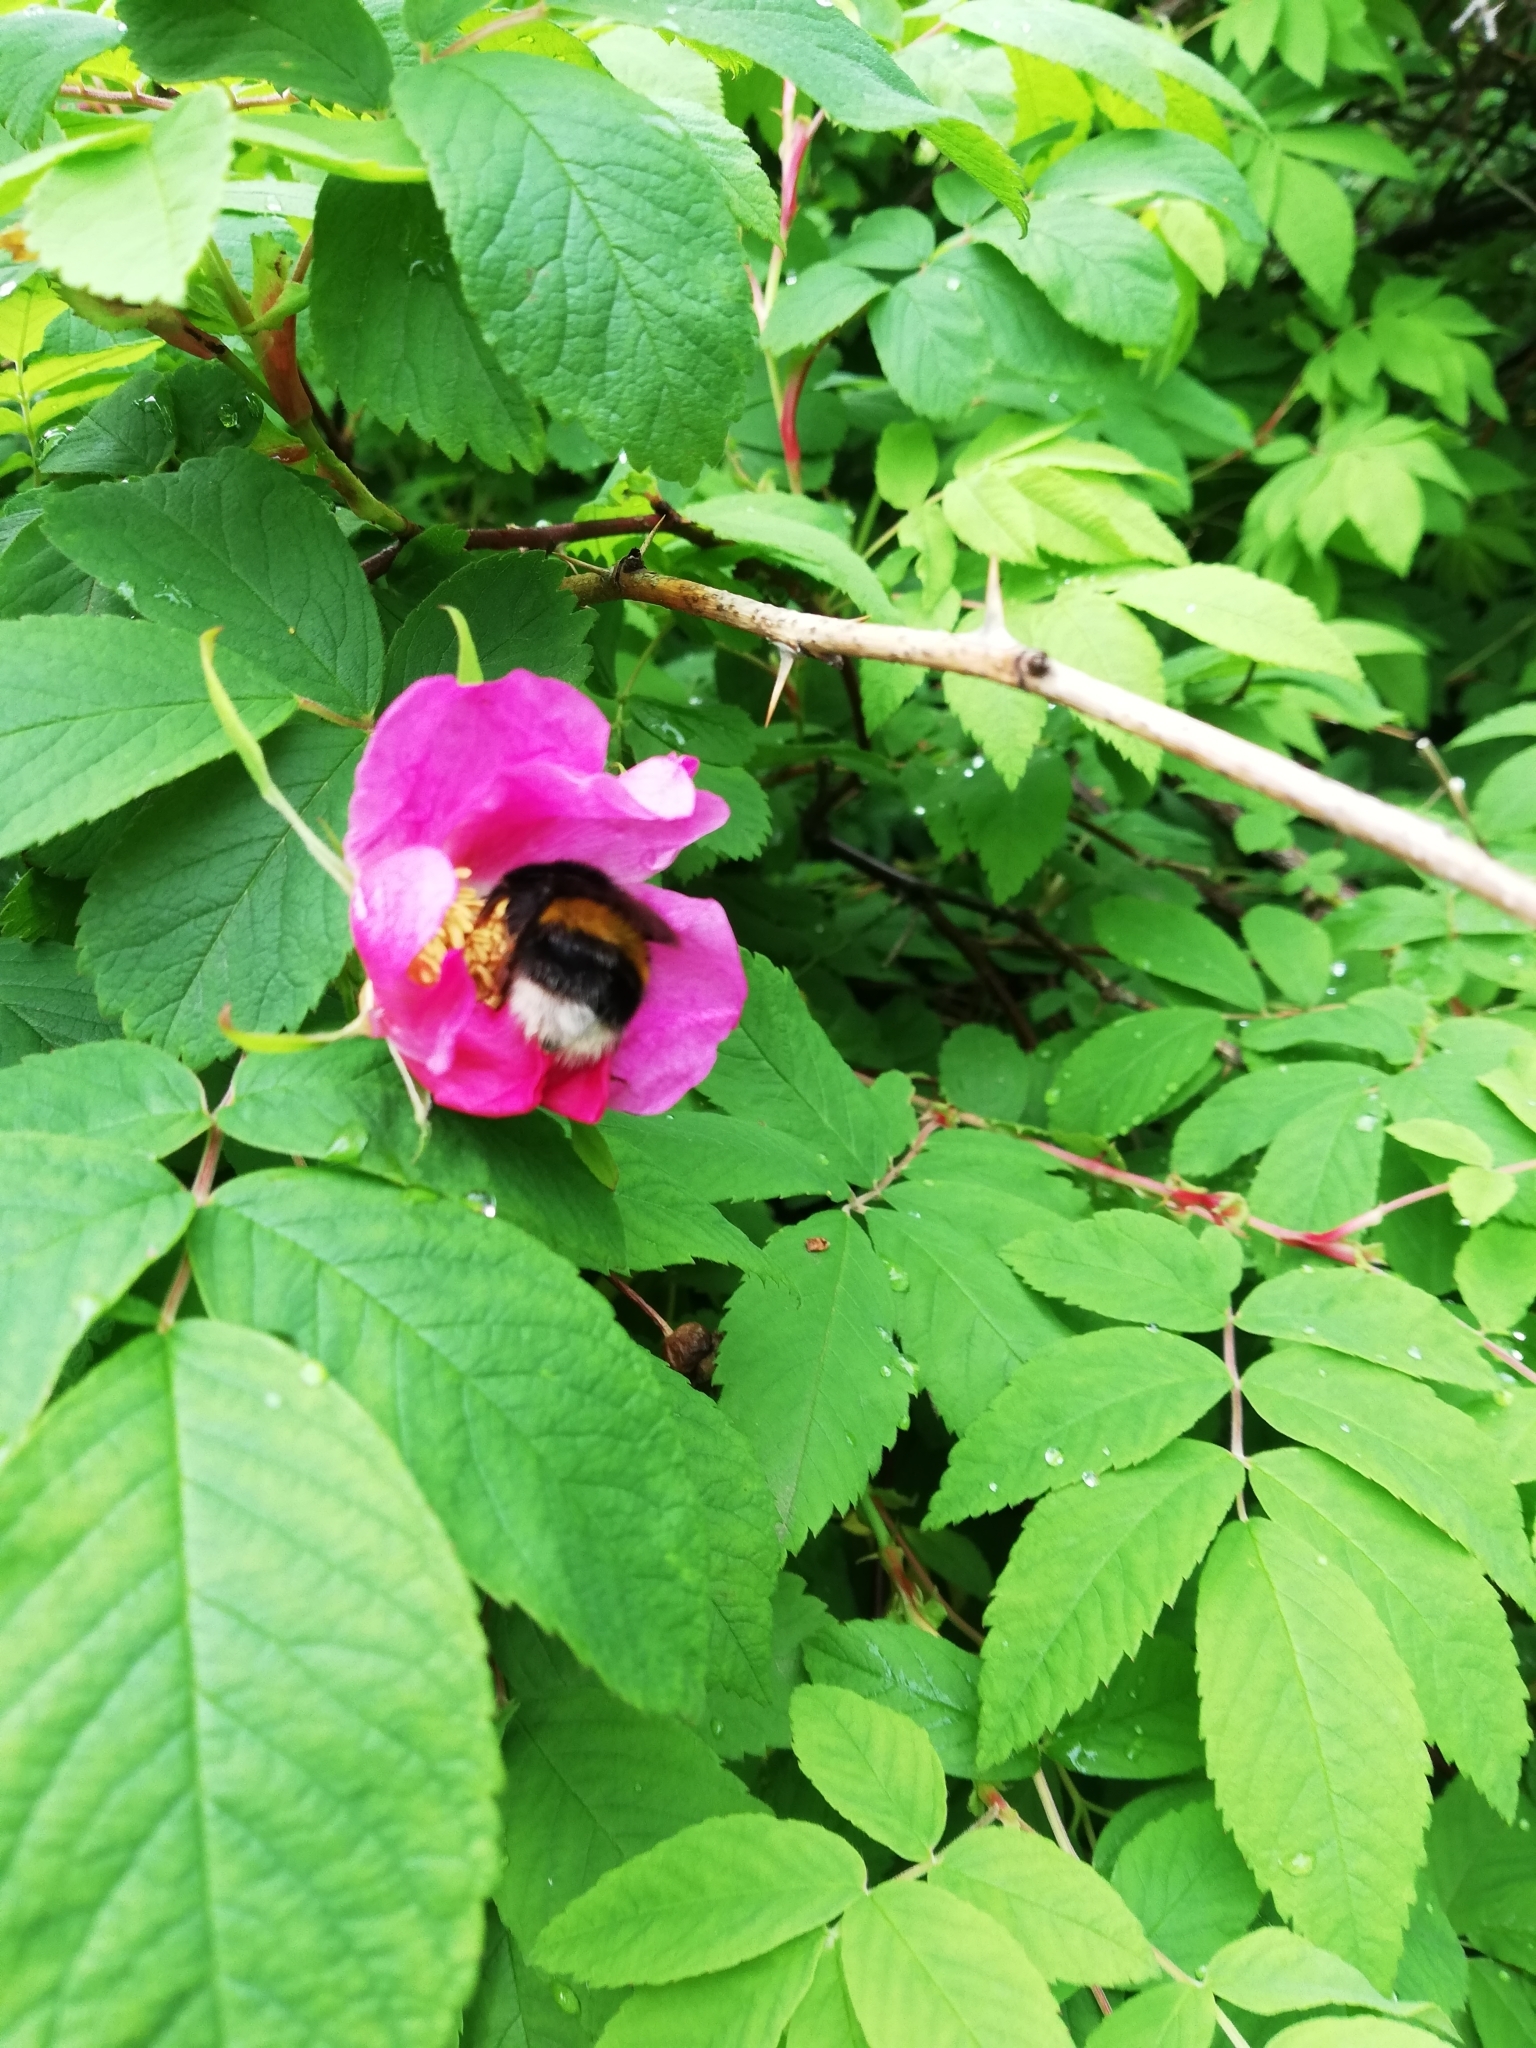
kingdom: Animalia
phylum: Arthropoda
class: Insecta
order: Hymenoptera
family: Apidae
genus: Bombus
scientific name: Bombus lucorum
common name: White-tailed bumblebee
